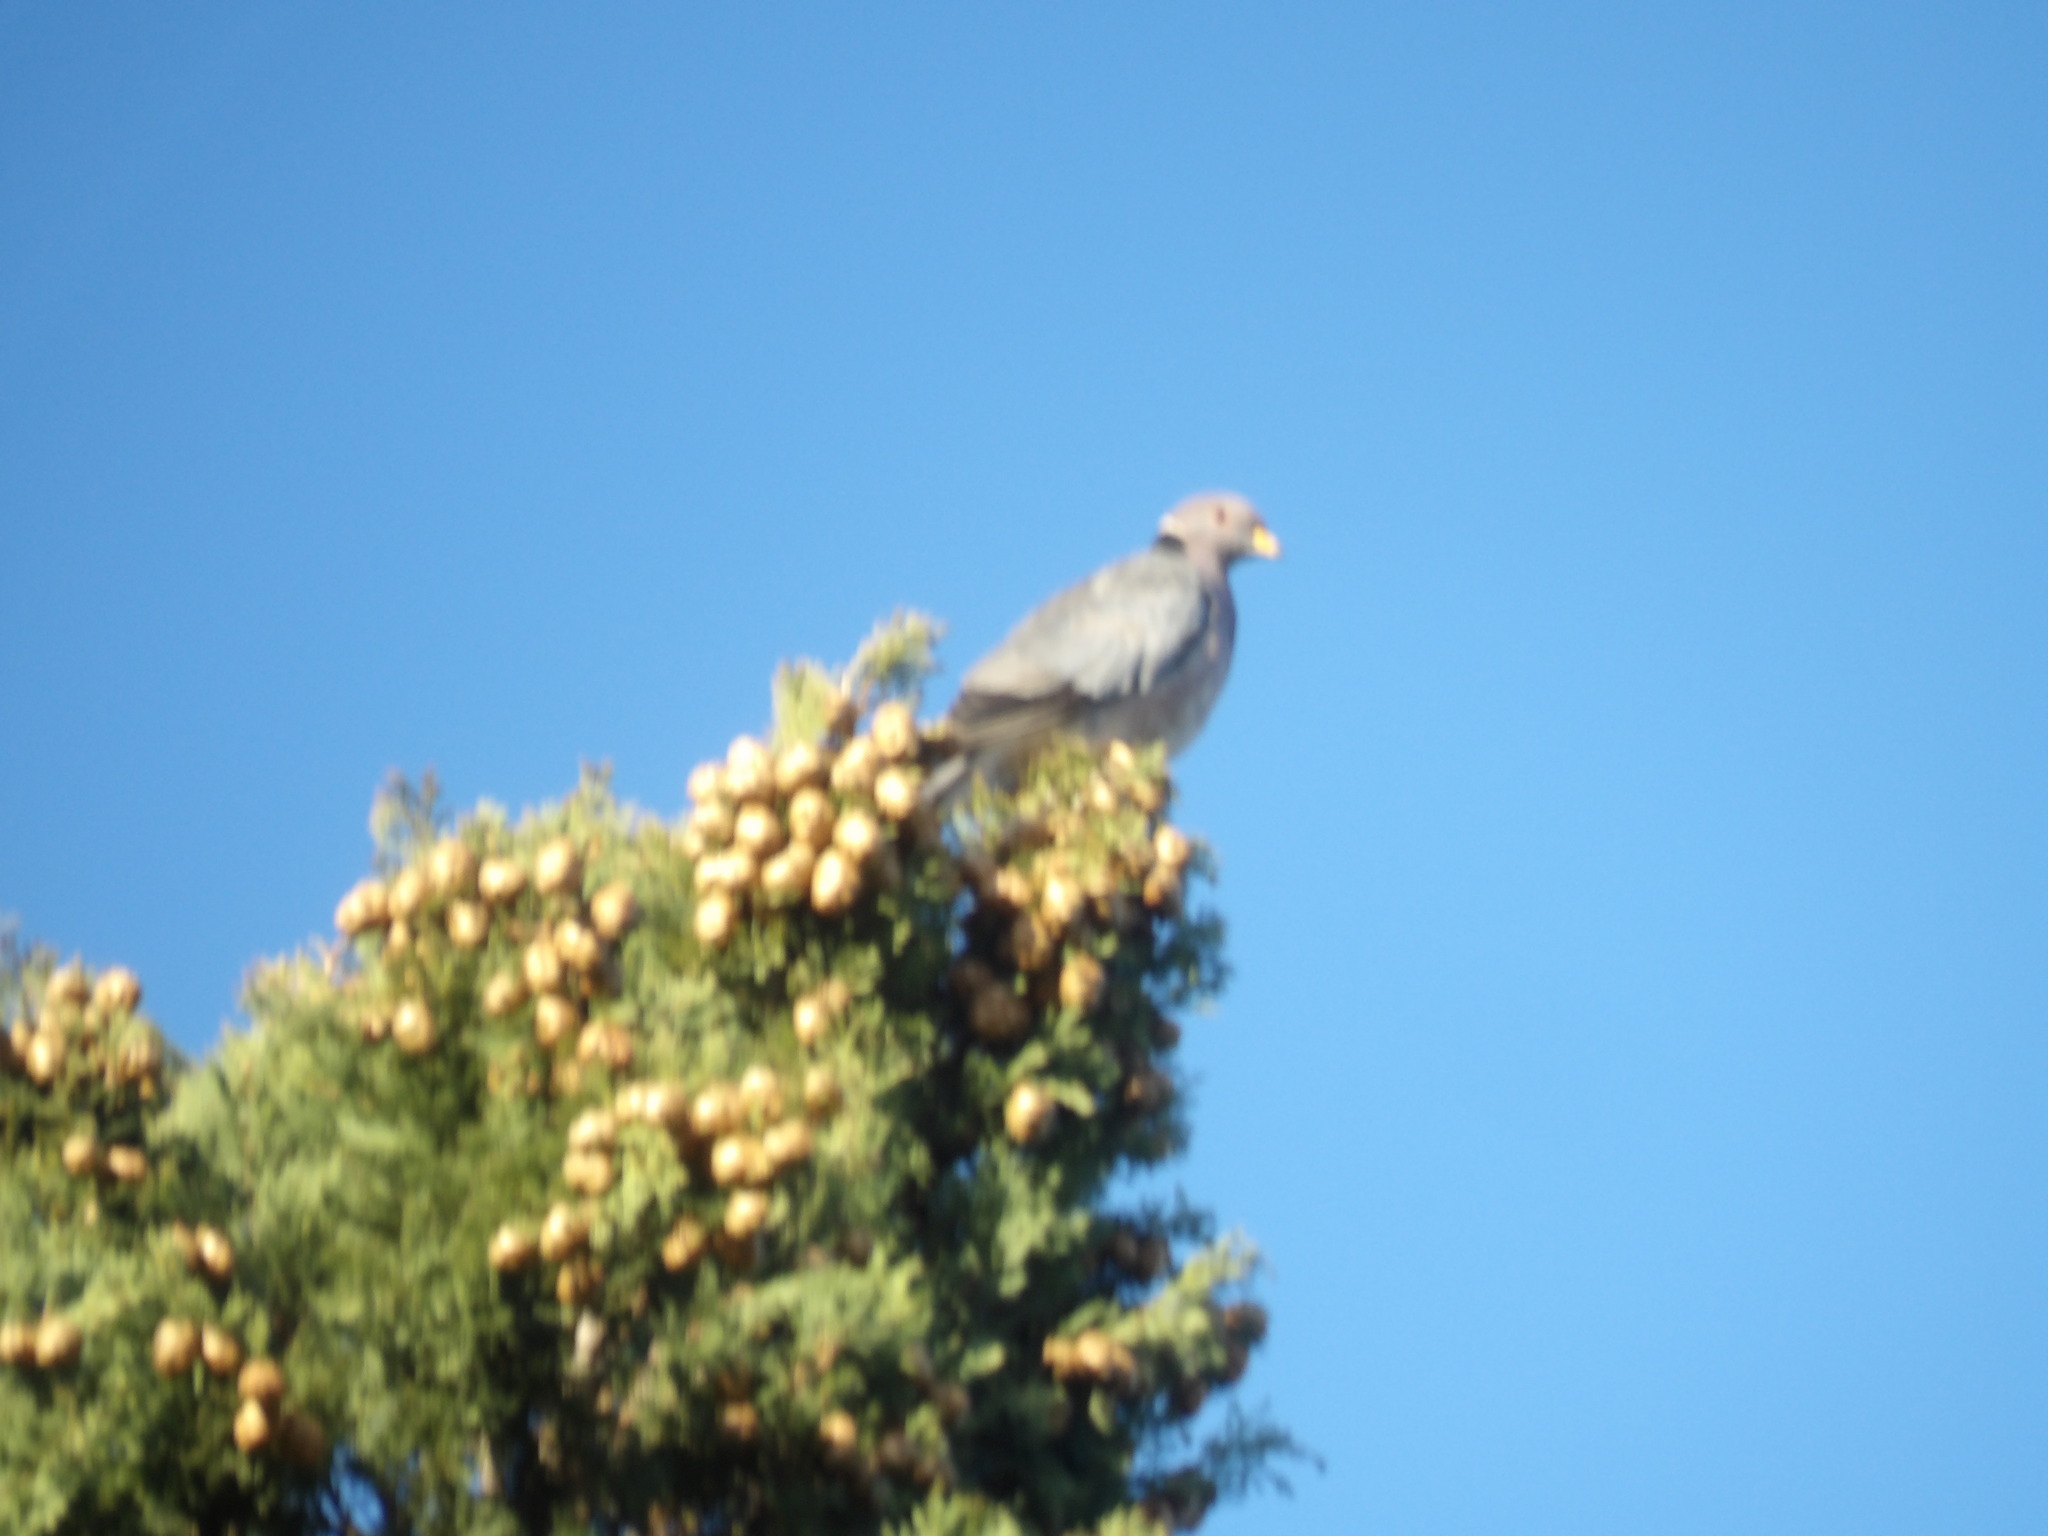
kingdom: Animalia
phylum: Chordata
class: Aves
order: Columbiformes
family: Columbidae
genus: Patagioenas
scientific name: Patagioenas fasciata
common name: Band-tailed pigeon
